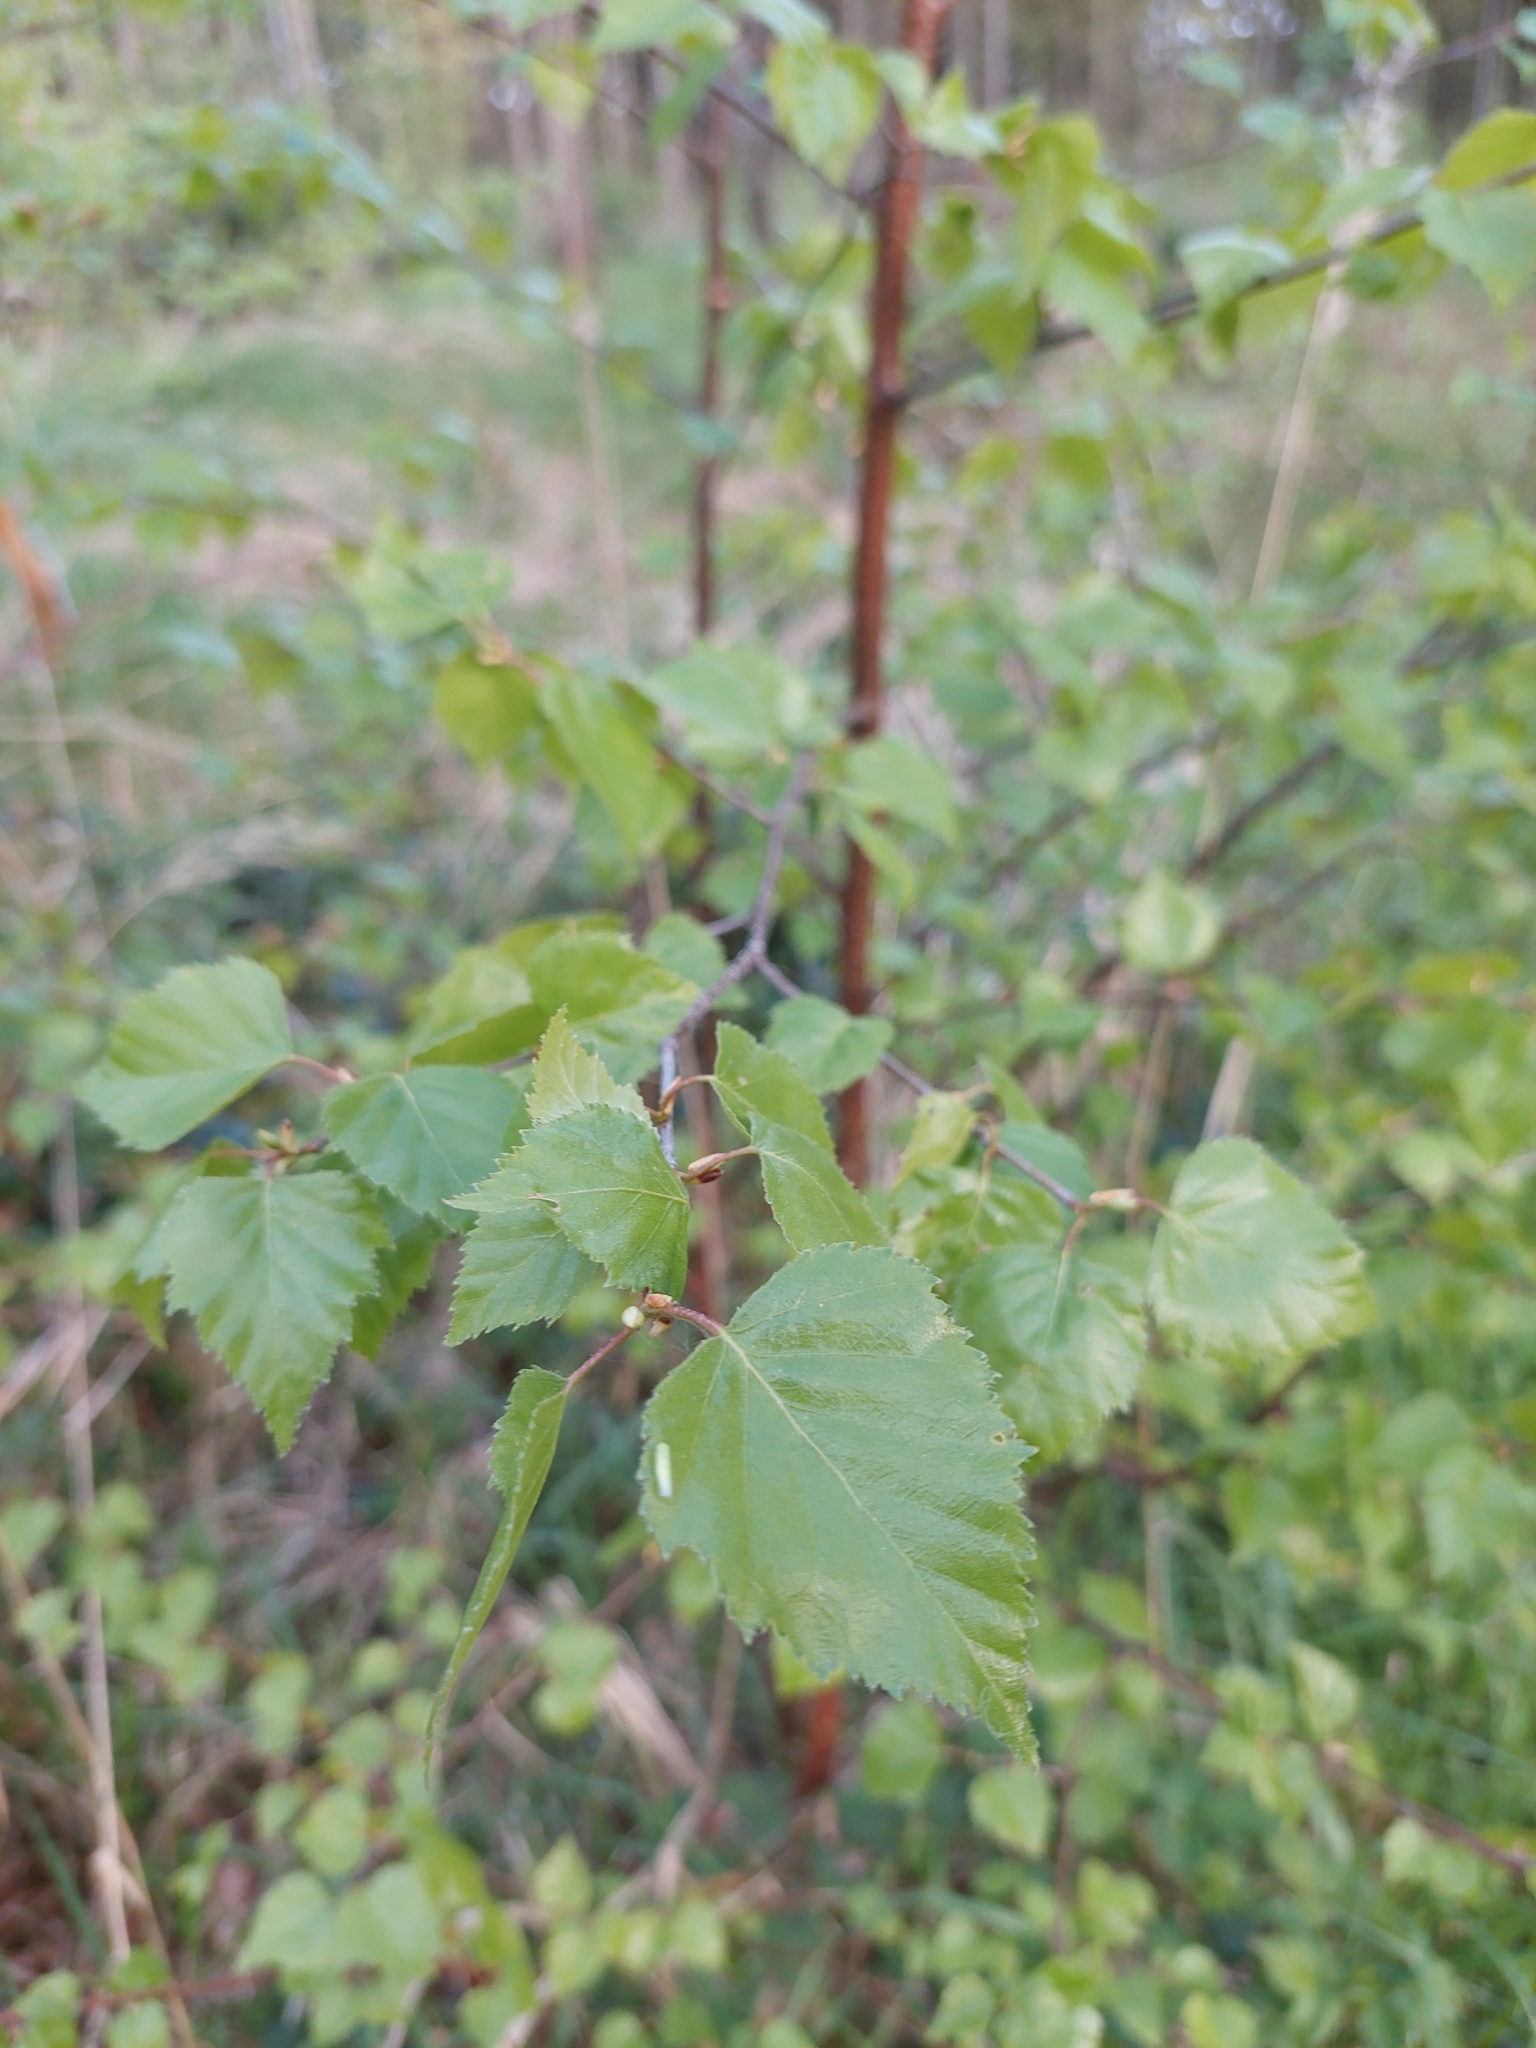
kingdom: Plantae
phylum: Tracheophyta
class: Magnoliopsida
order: Fagales
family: Betulaceae
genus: Betula
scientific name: Betula pendula
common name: Silver birch
